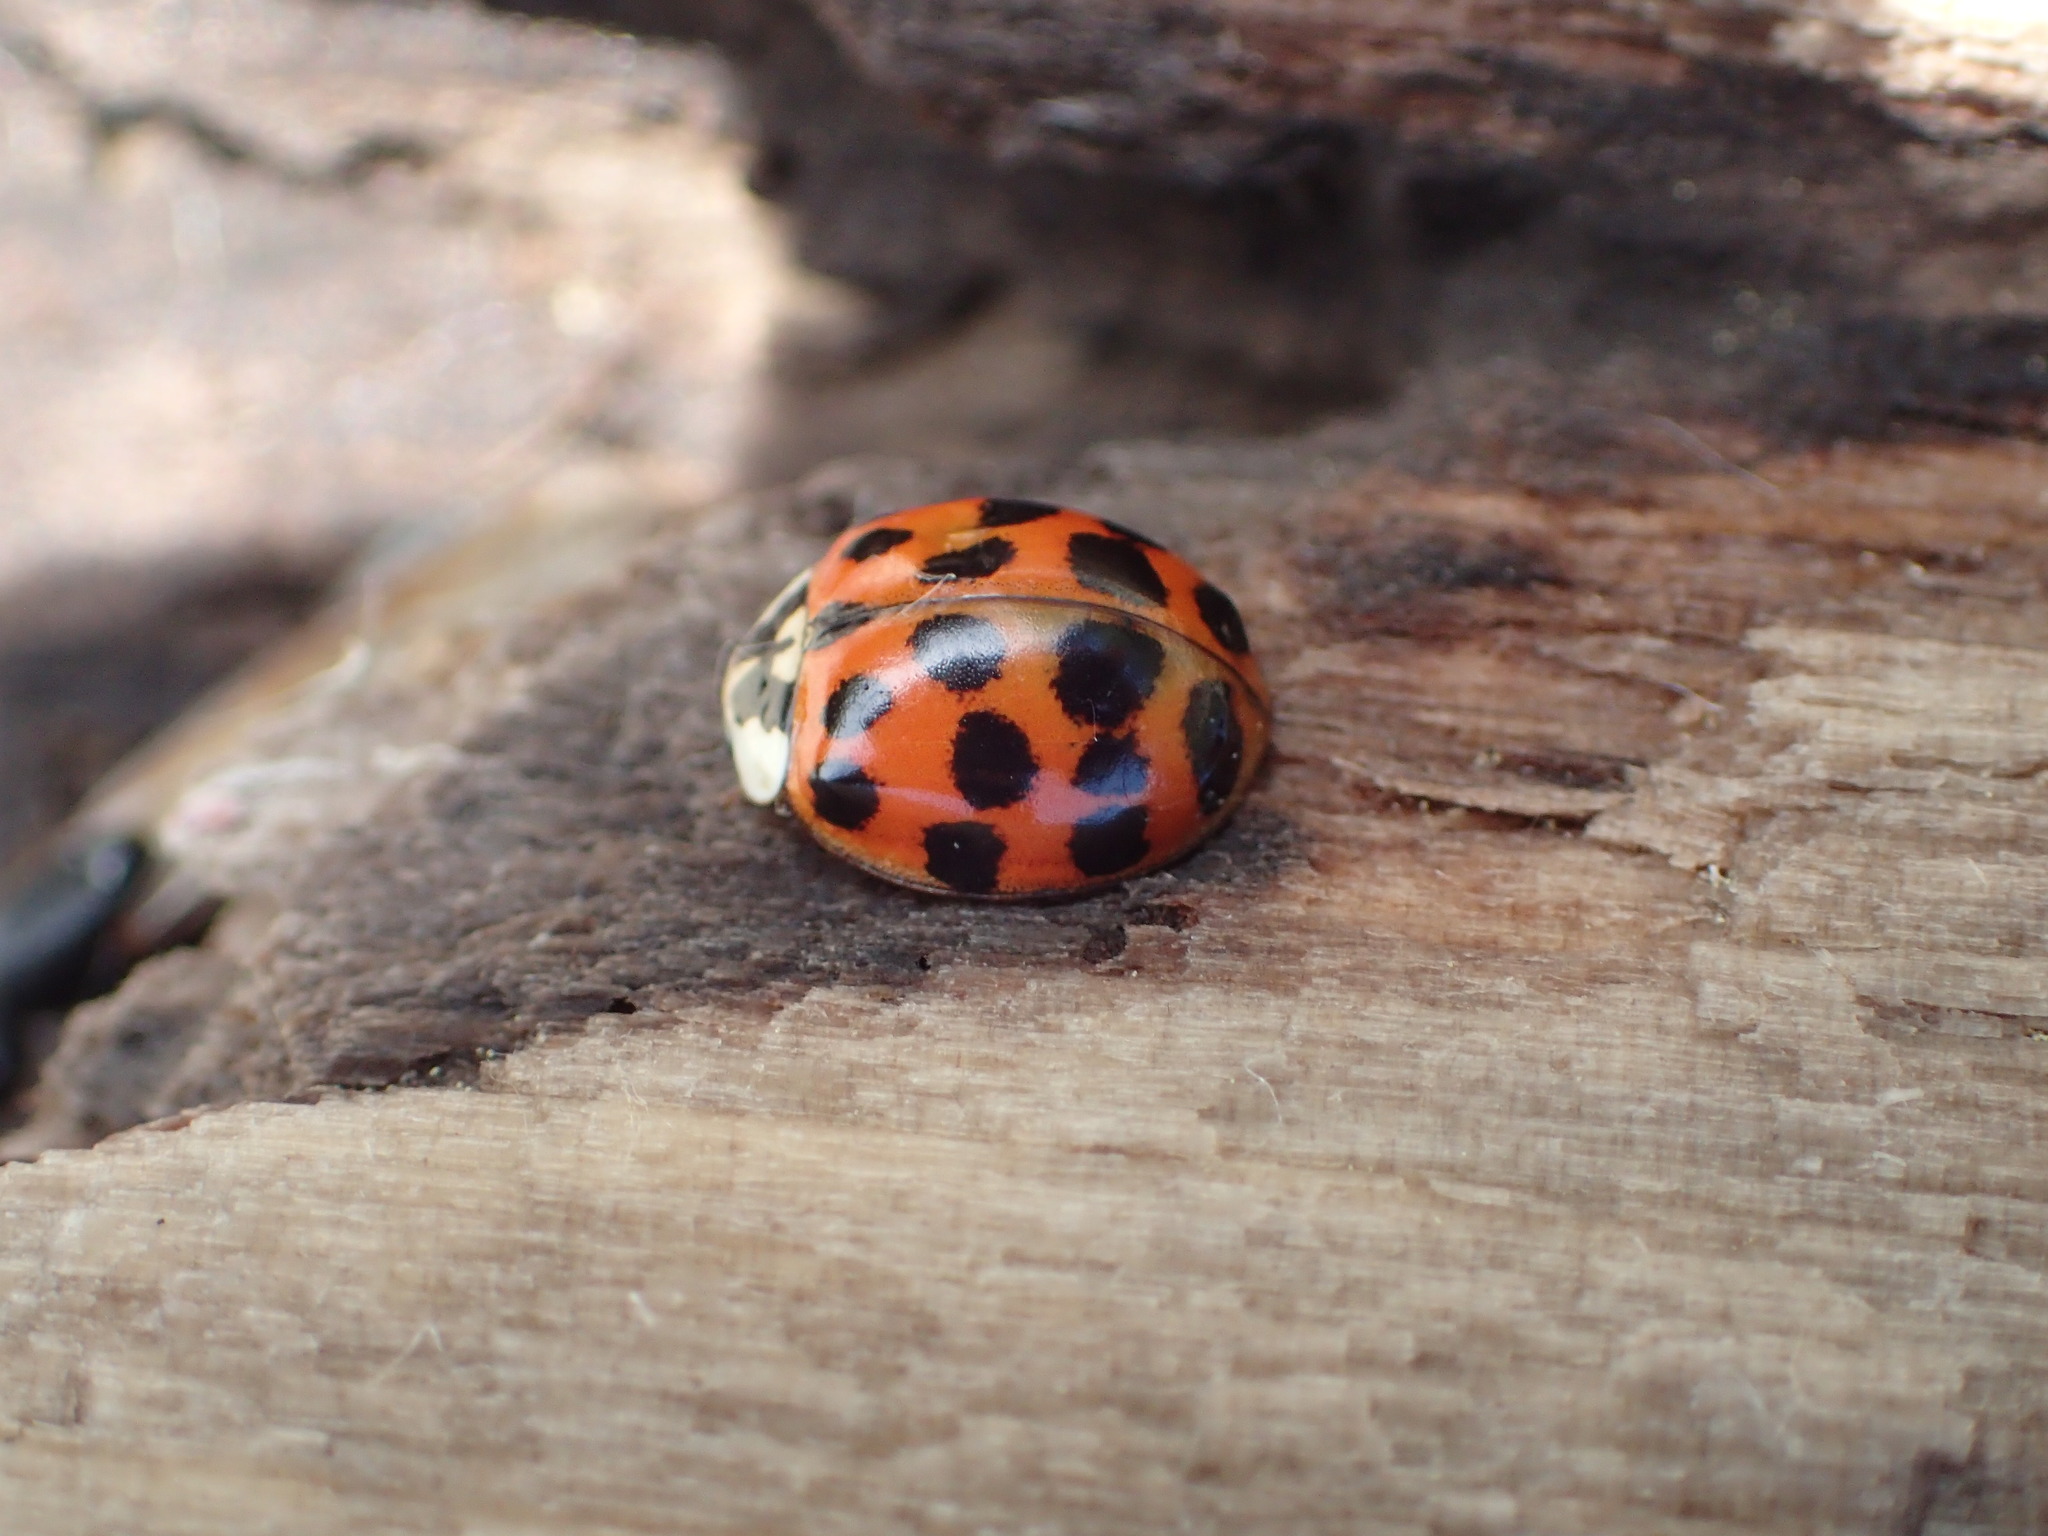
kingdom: Animalia
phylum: Arthropoda
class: Insecta
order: Coleoptera
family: Coccinellidae
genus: Harmonia
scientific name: Harmonia axyridis
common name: Harlequin ladybird
